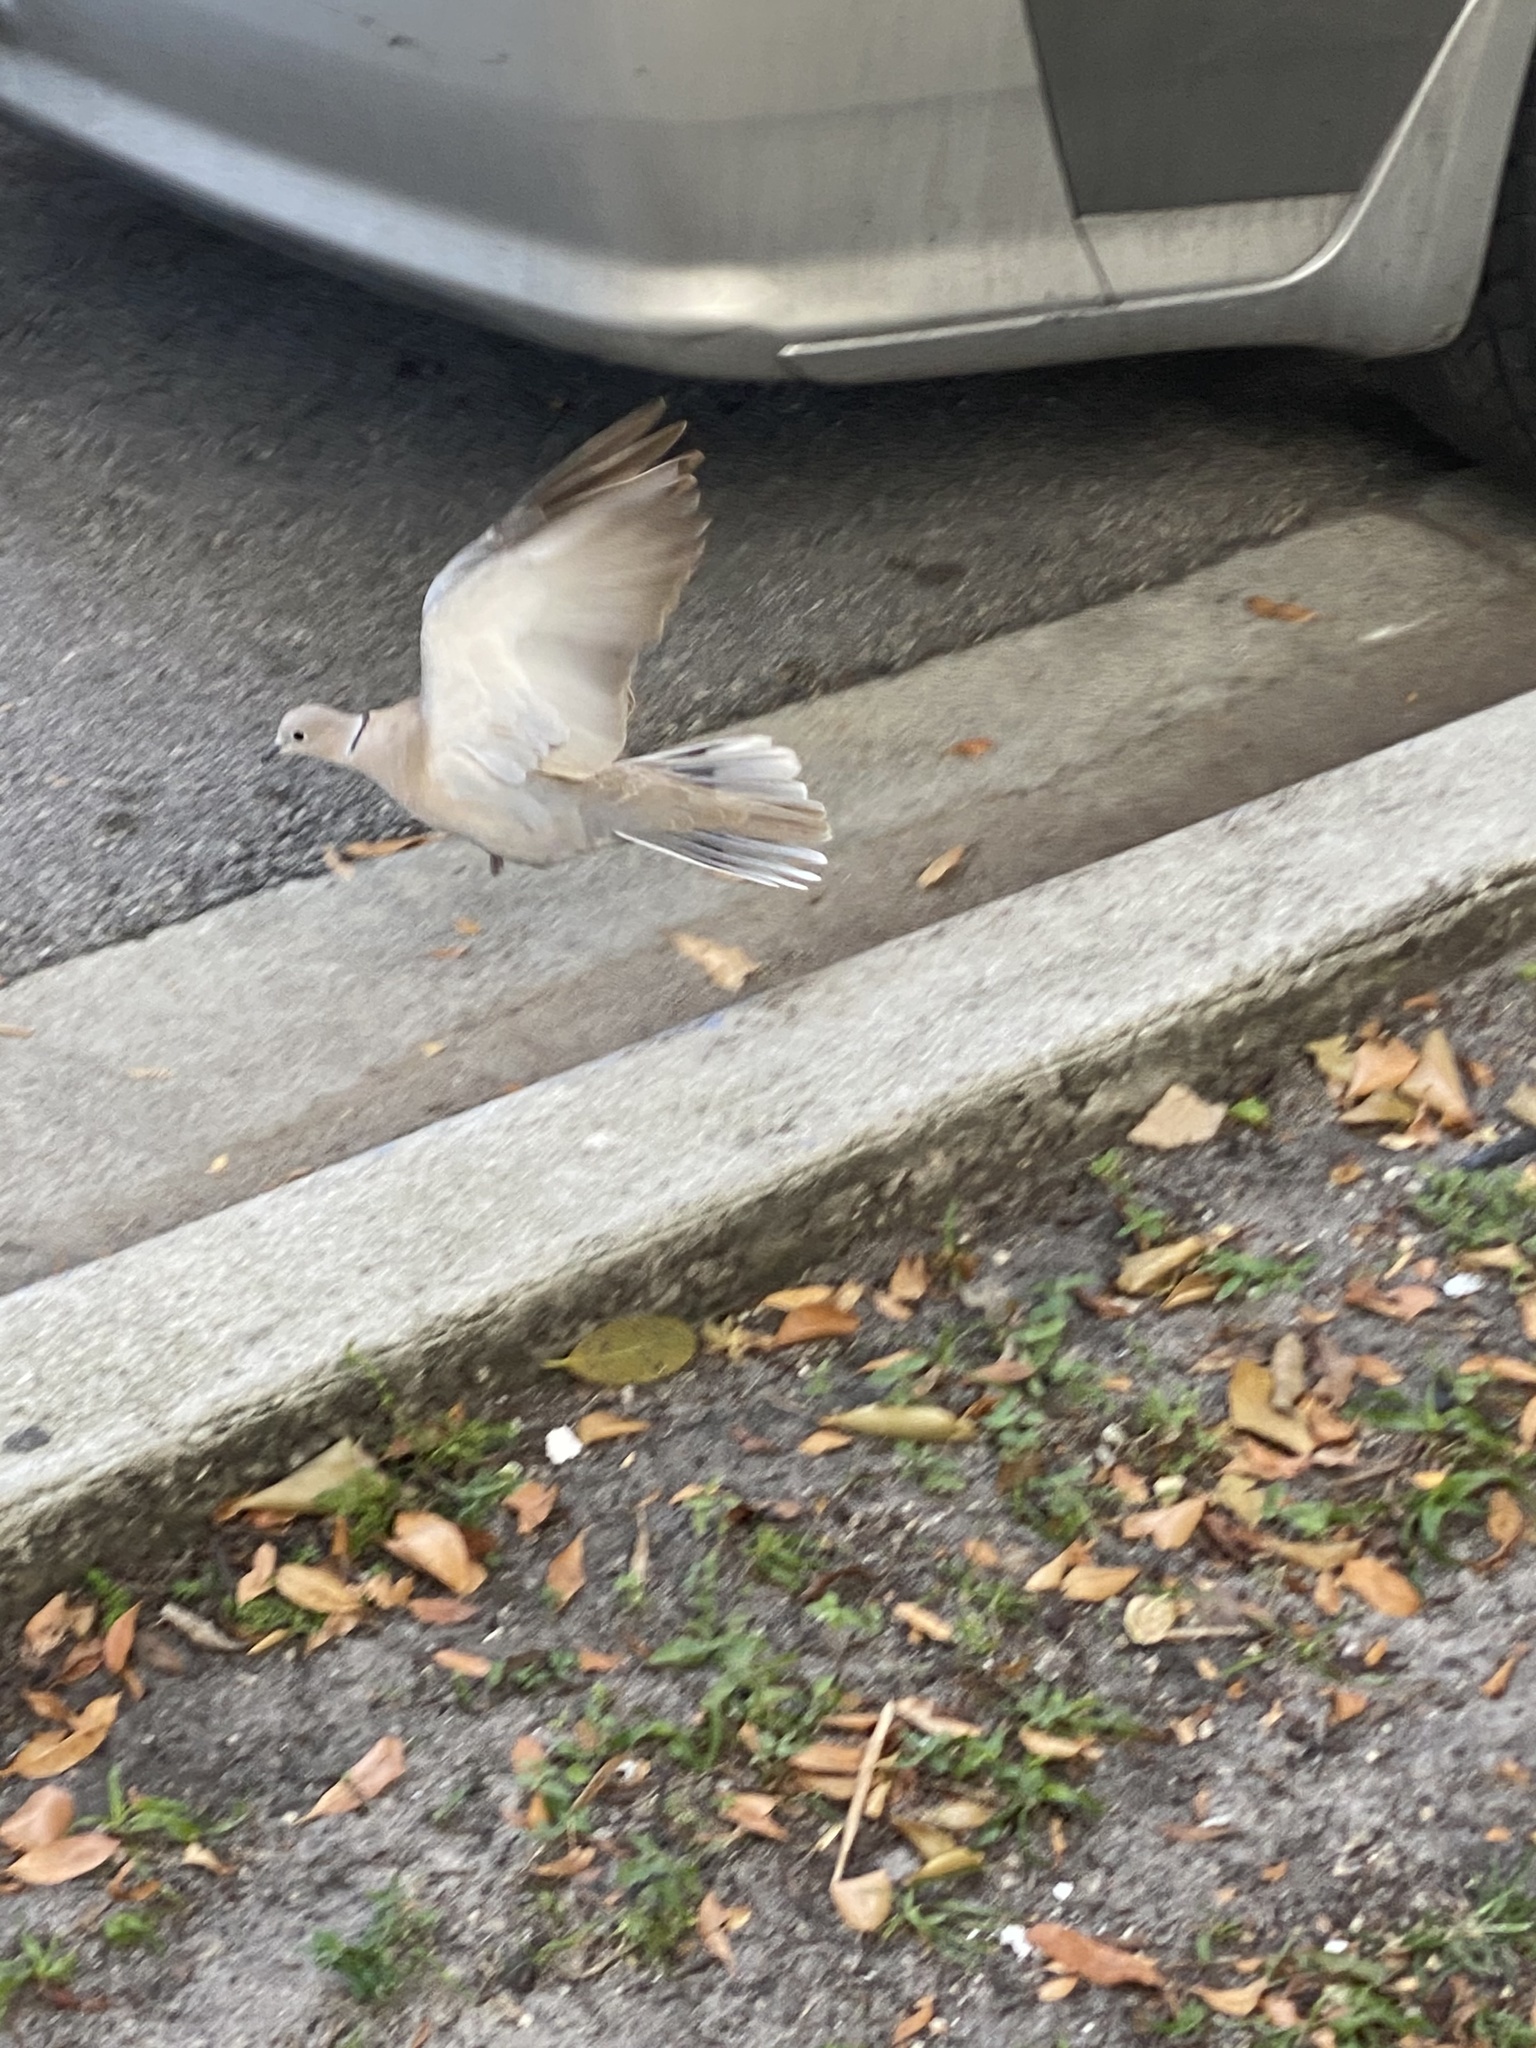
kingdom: Animalia
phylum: Chordata
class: Aves
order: Columbiformes
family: Columbidae
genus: Streptopelia
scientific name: Streptopelia decaocto
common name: Eurasian collared dove
